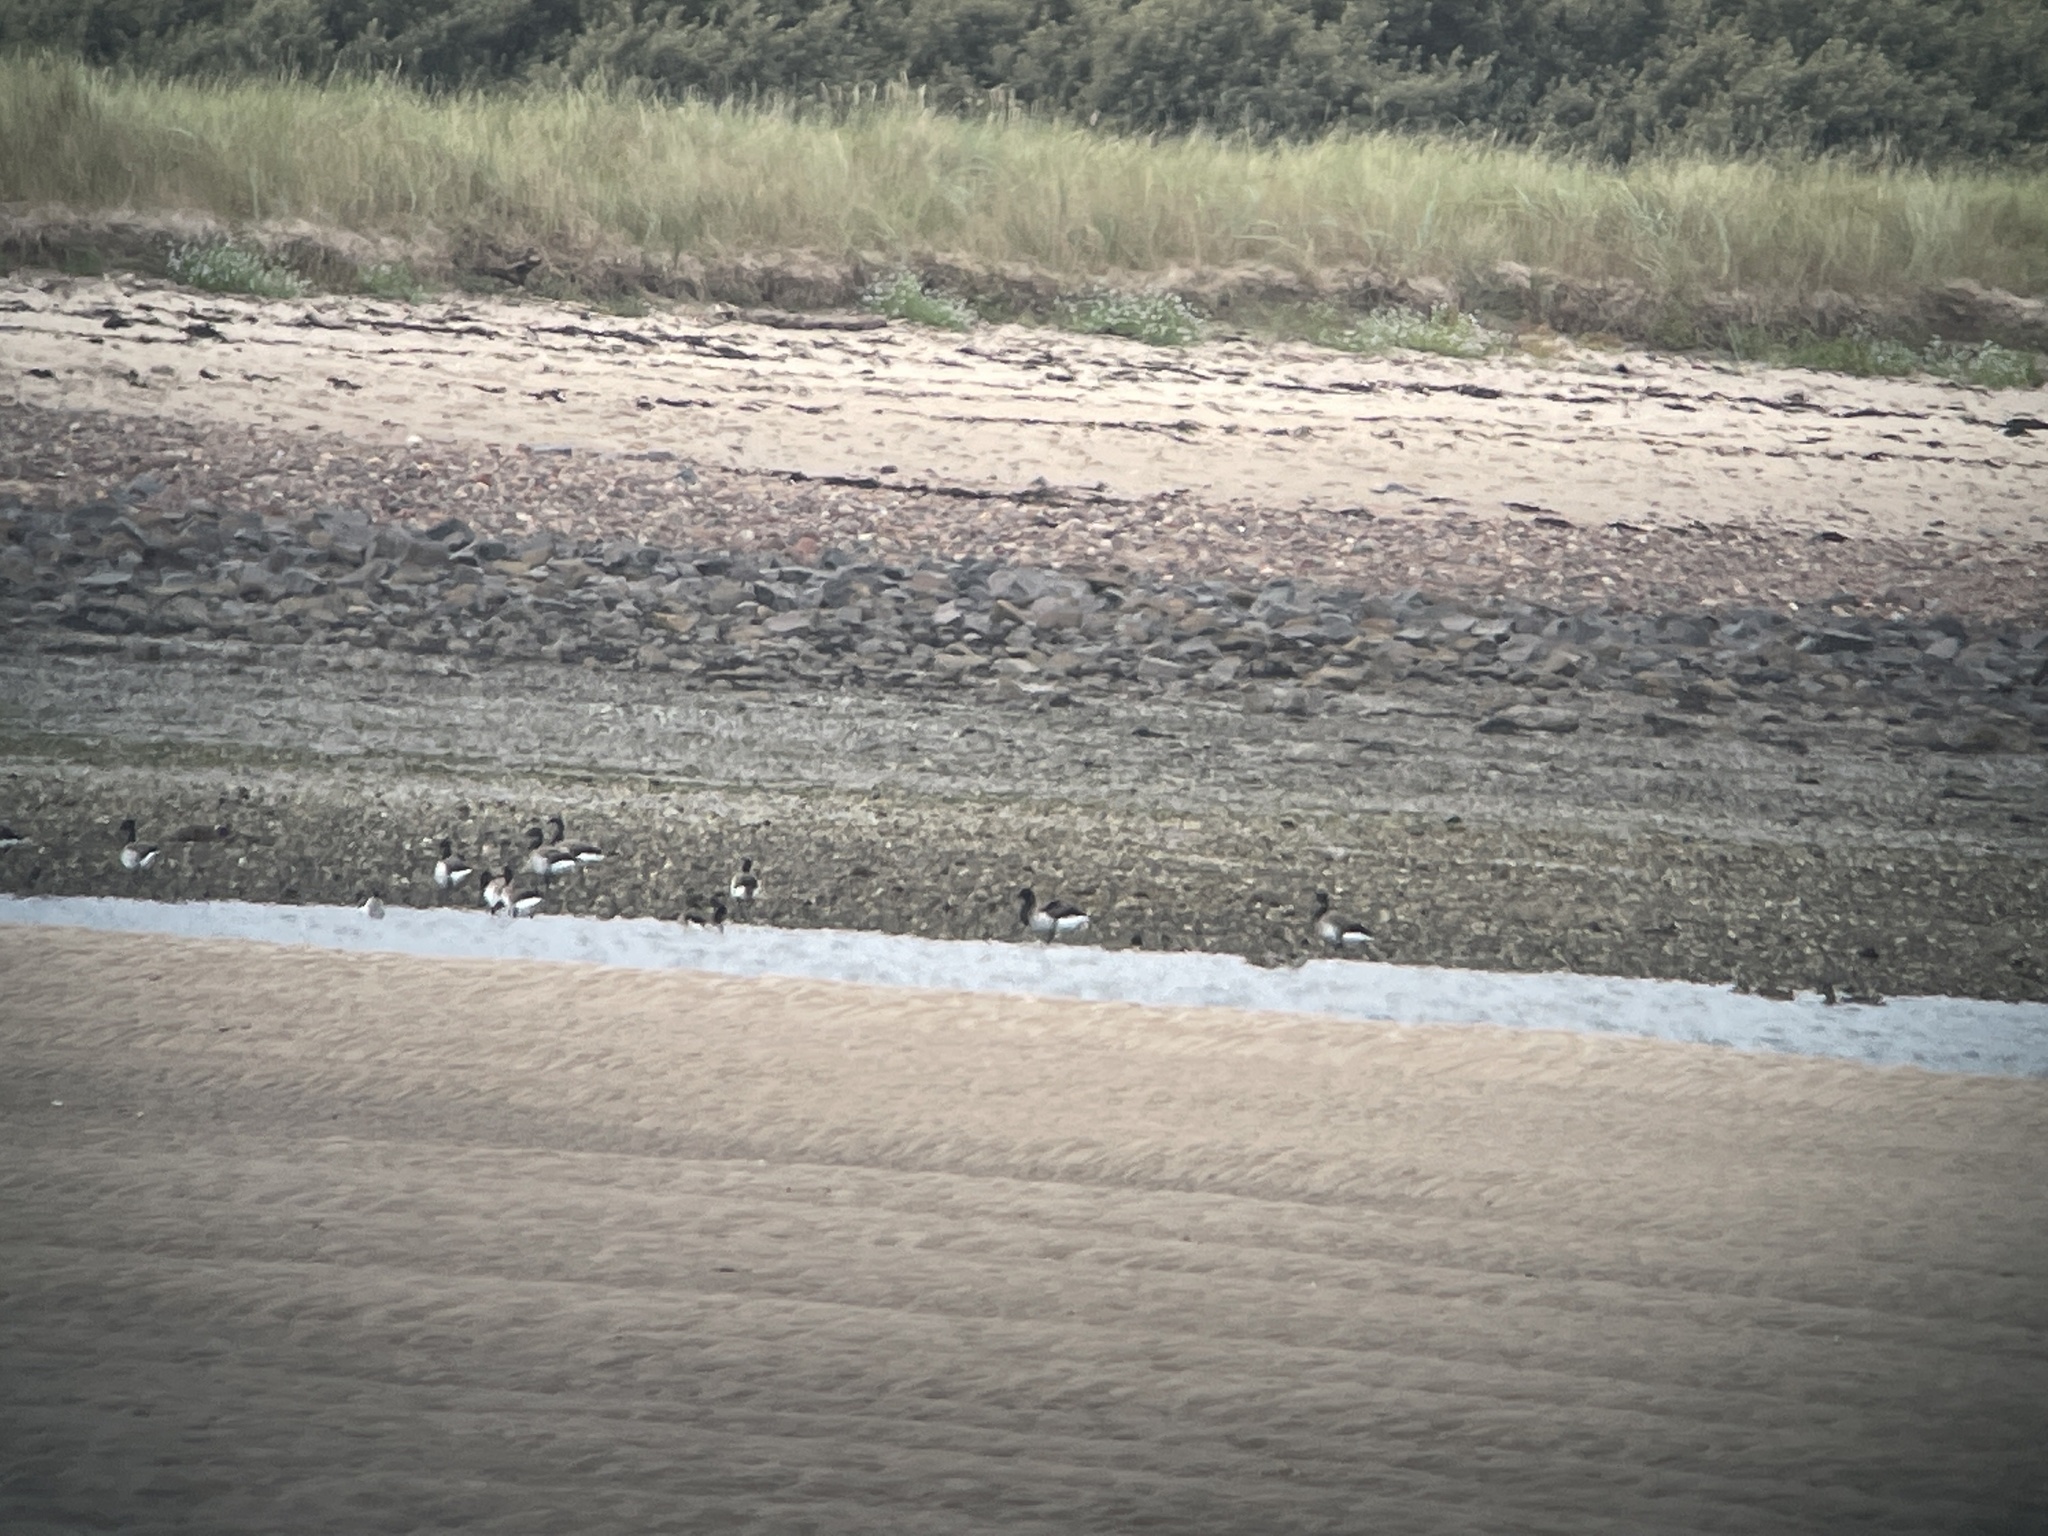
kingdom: Animalia
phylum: Chordata
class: Aves
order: Anseriformes
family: Anatidae
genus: Branta
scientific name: Branta bernicla
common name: Brant goose
